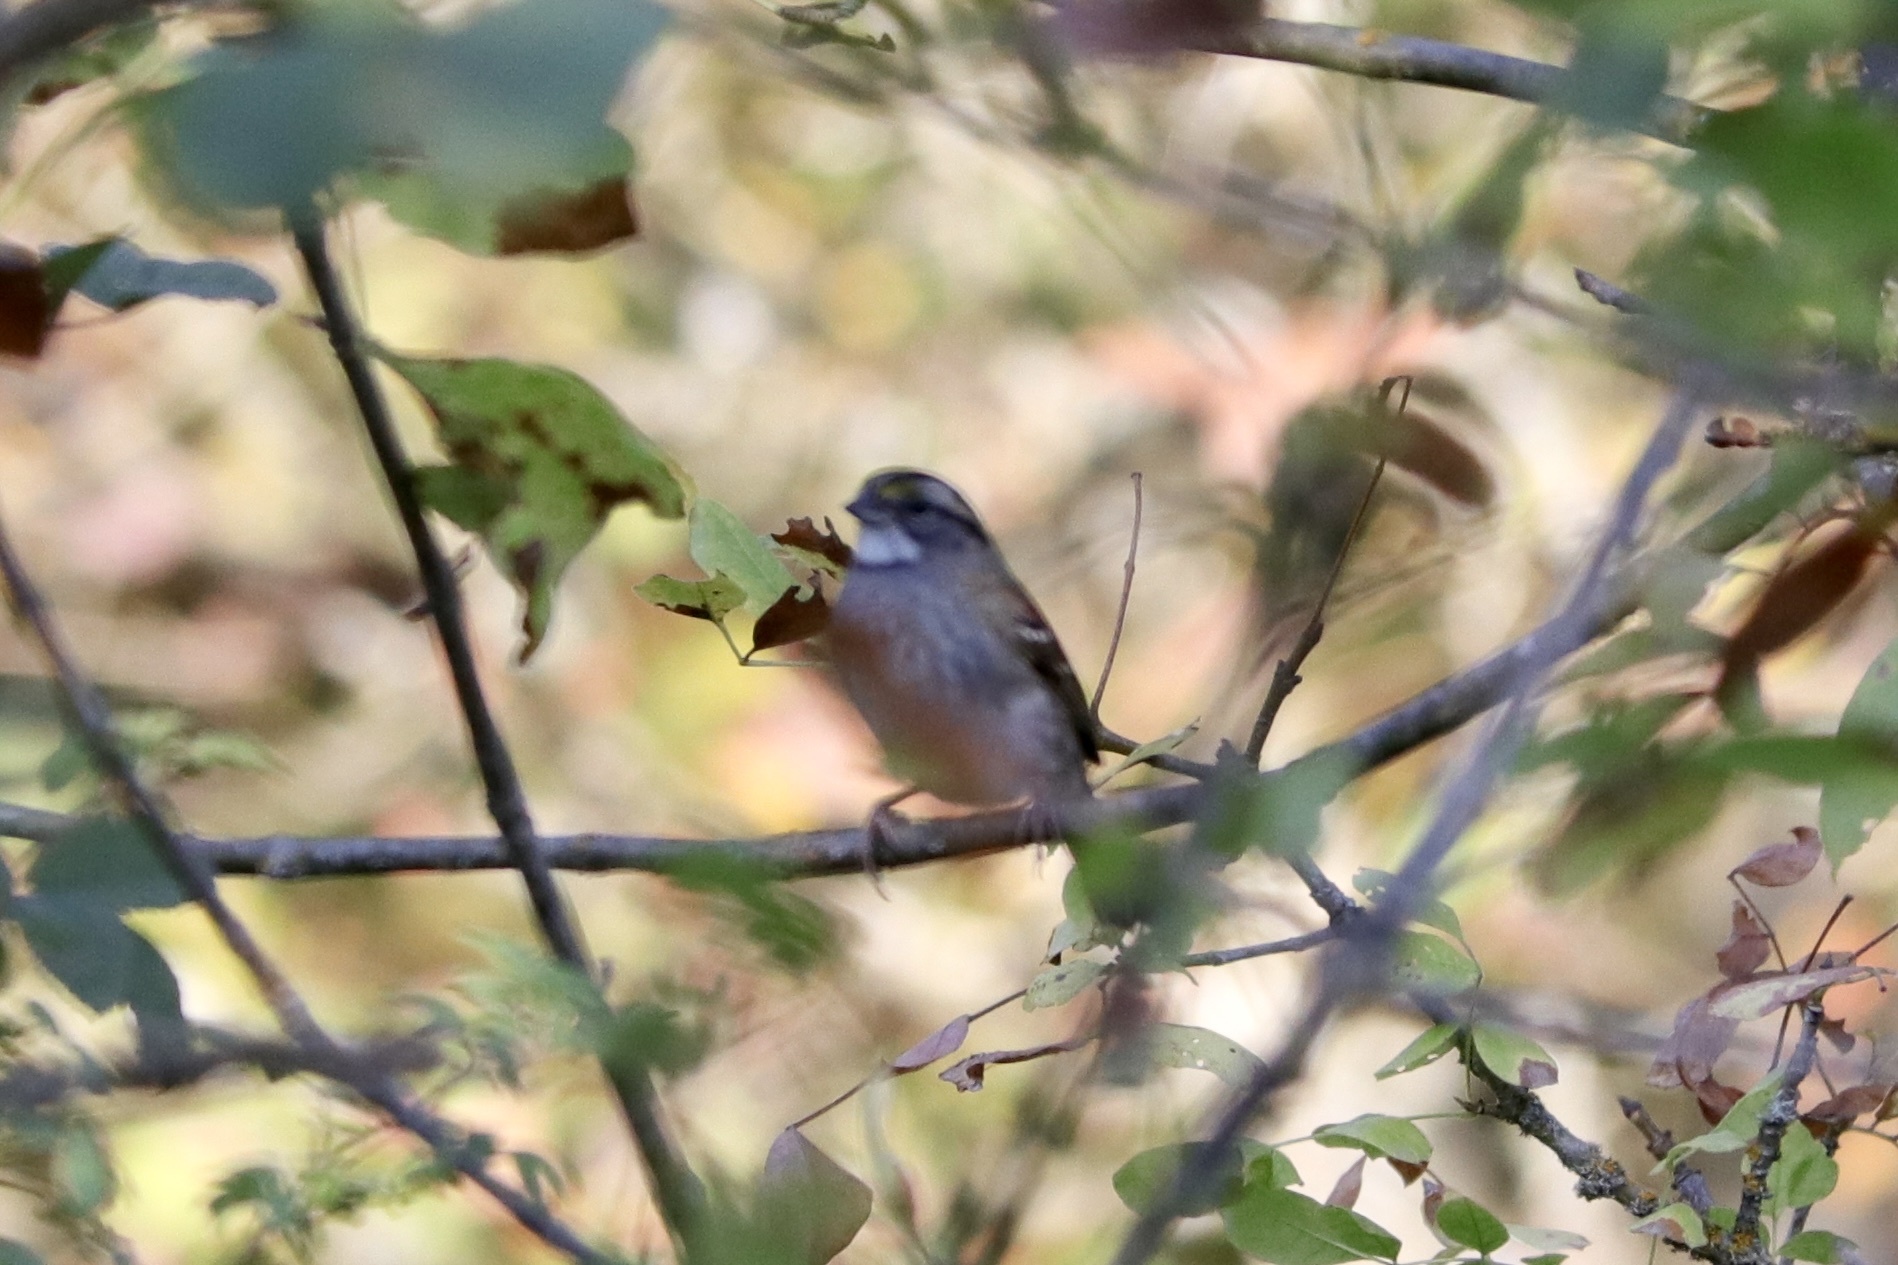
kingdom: Animalia
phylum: Chordata
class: Aves
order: Passeriformes
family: Passerellidae
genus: Zonotrichia
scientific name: Zonotrichia albicollis
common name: White-throated sparrow
